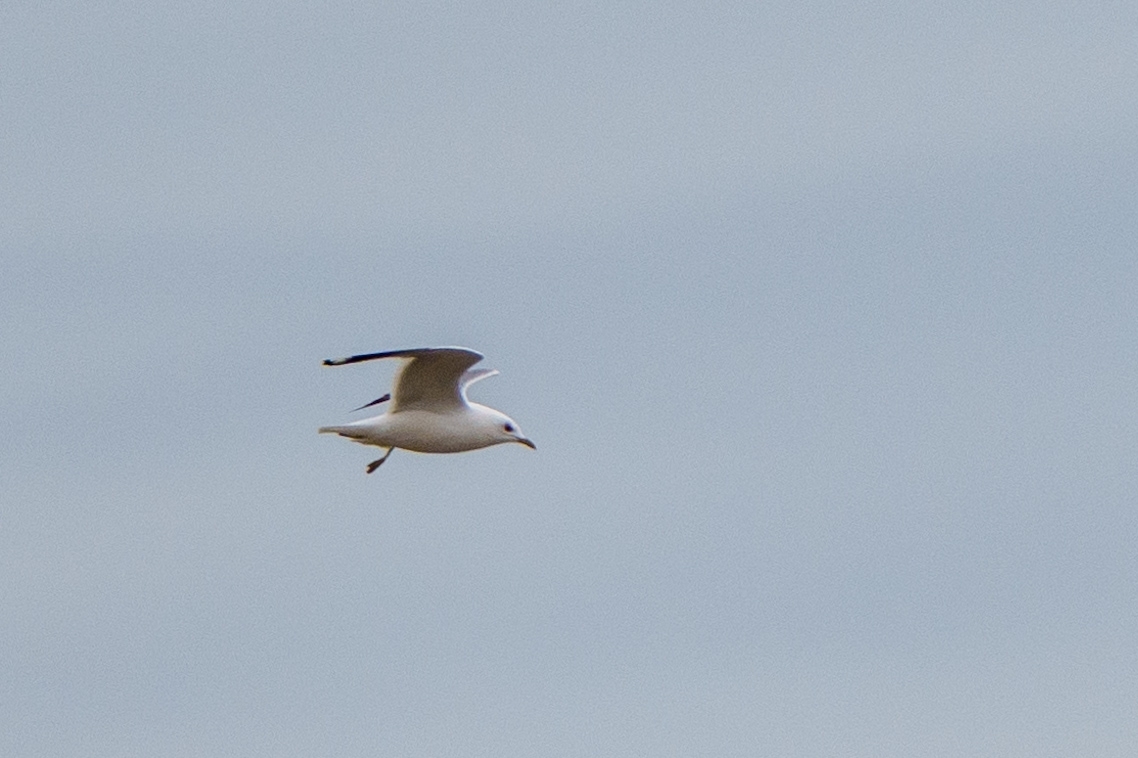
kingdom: Animalia
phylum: Chordata
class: Aves
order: Charadriiformes
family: Laridae
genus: Larus
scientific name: Larus brachyrhynchus
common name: Short-billed gull
